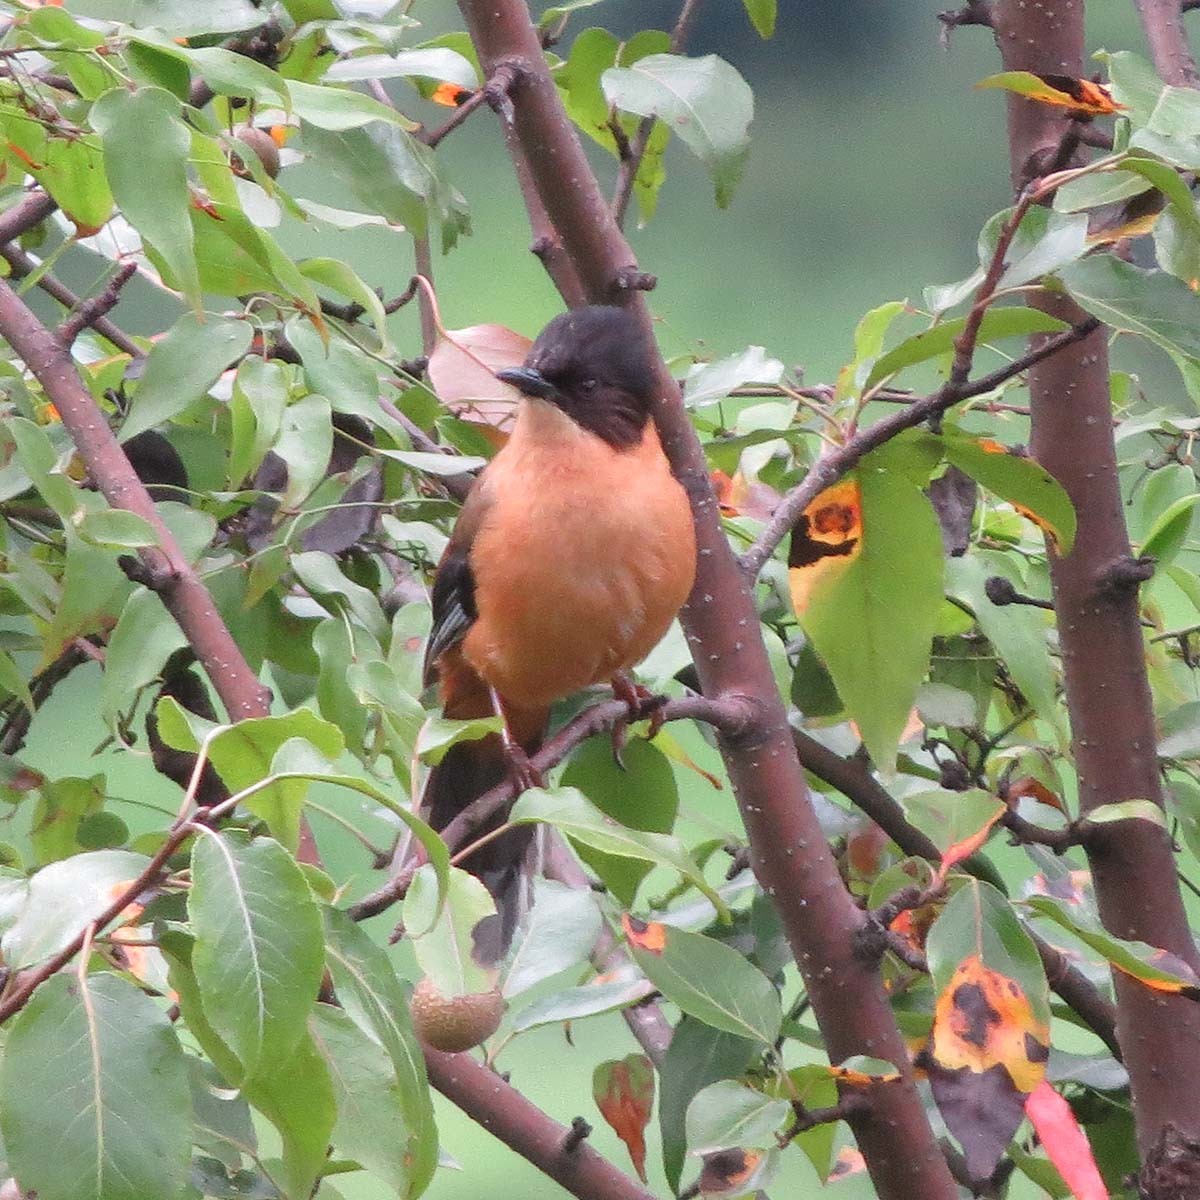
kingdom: Animalia
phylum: Chordata
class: Aves
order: Passeriformes
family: Leiothrichidae
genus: Heterophasia
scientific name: Heterophasia capistrata
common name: Rufous sibia
